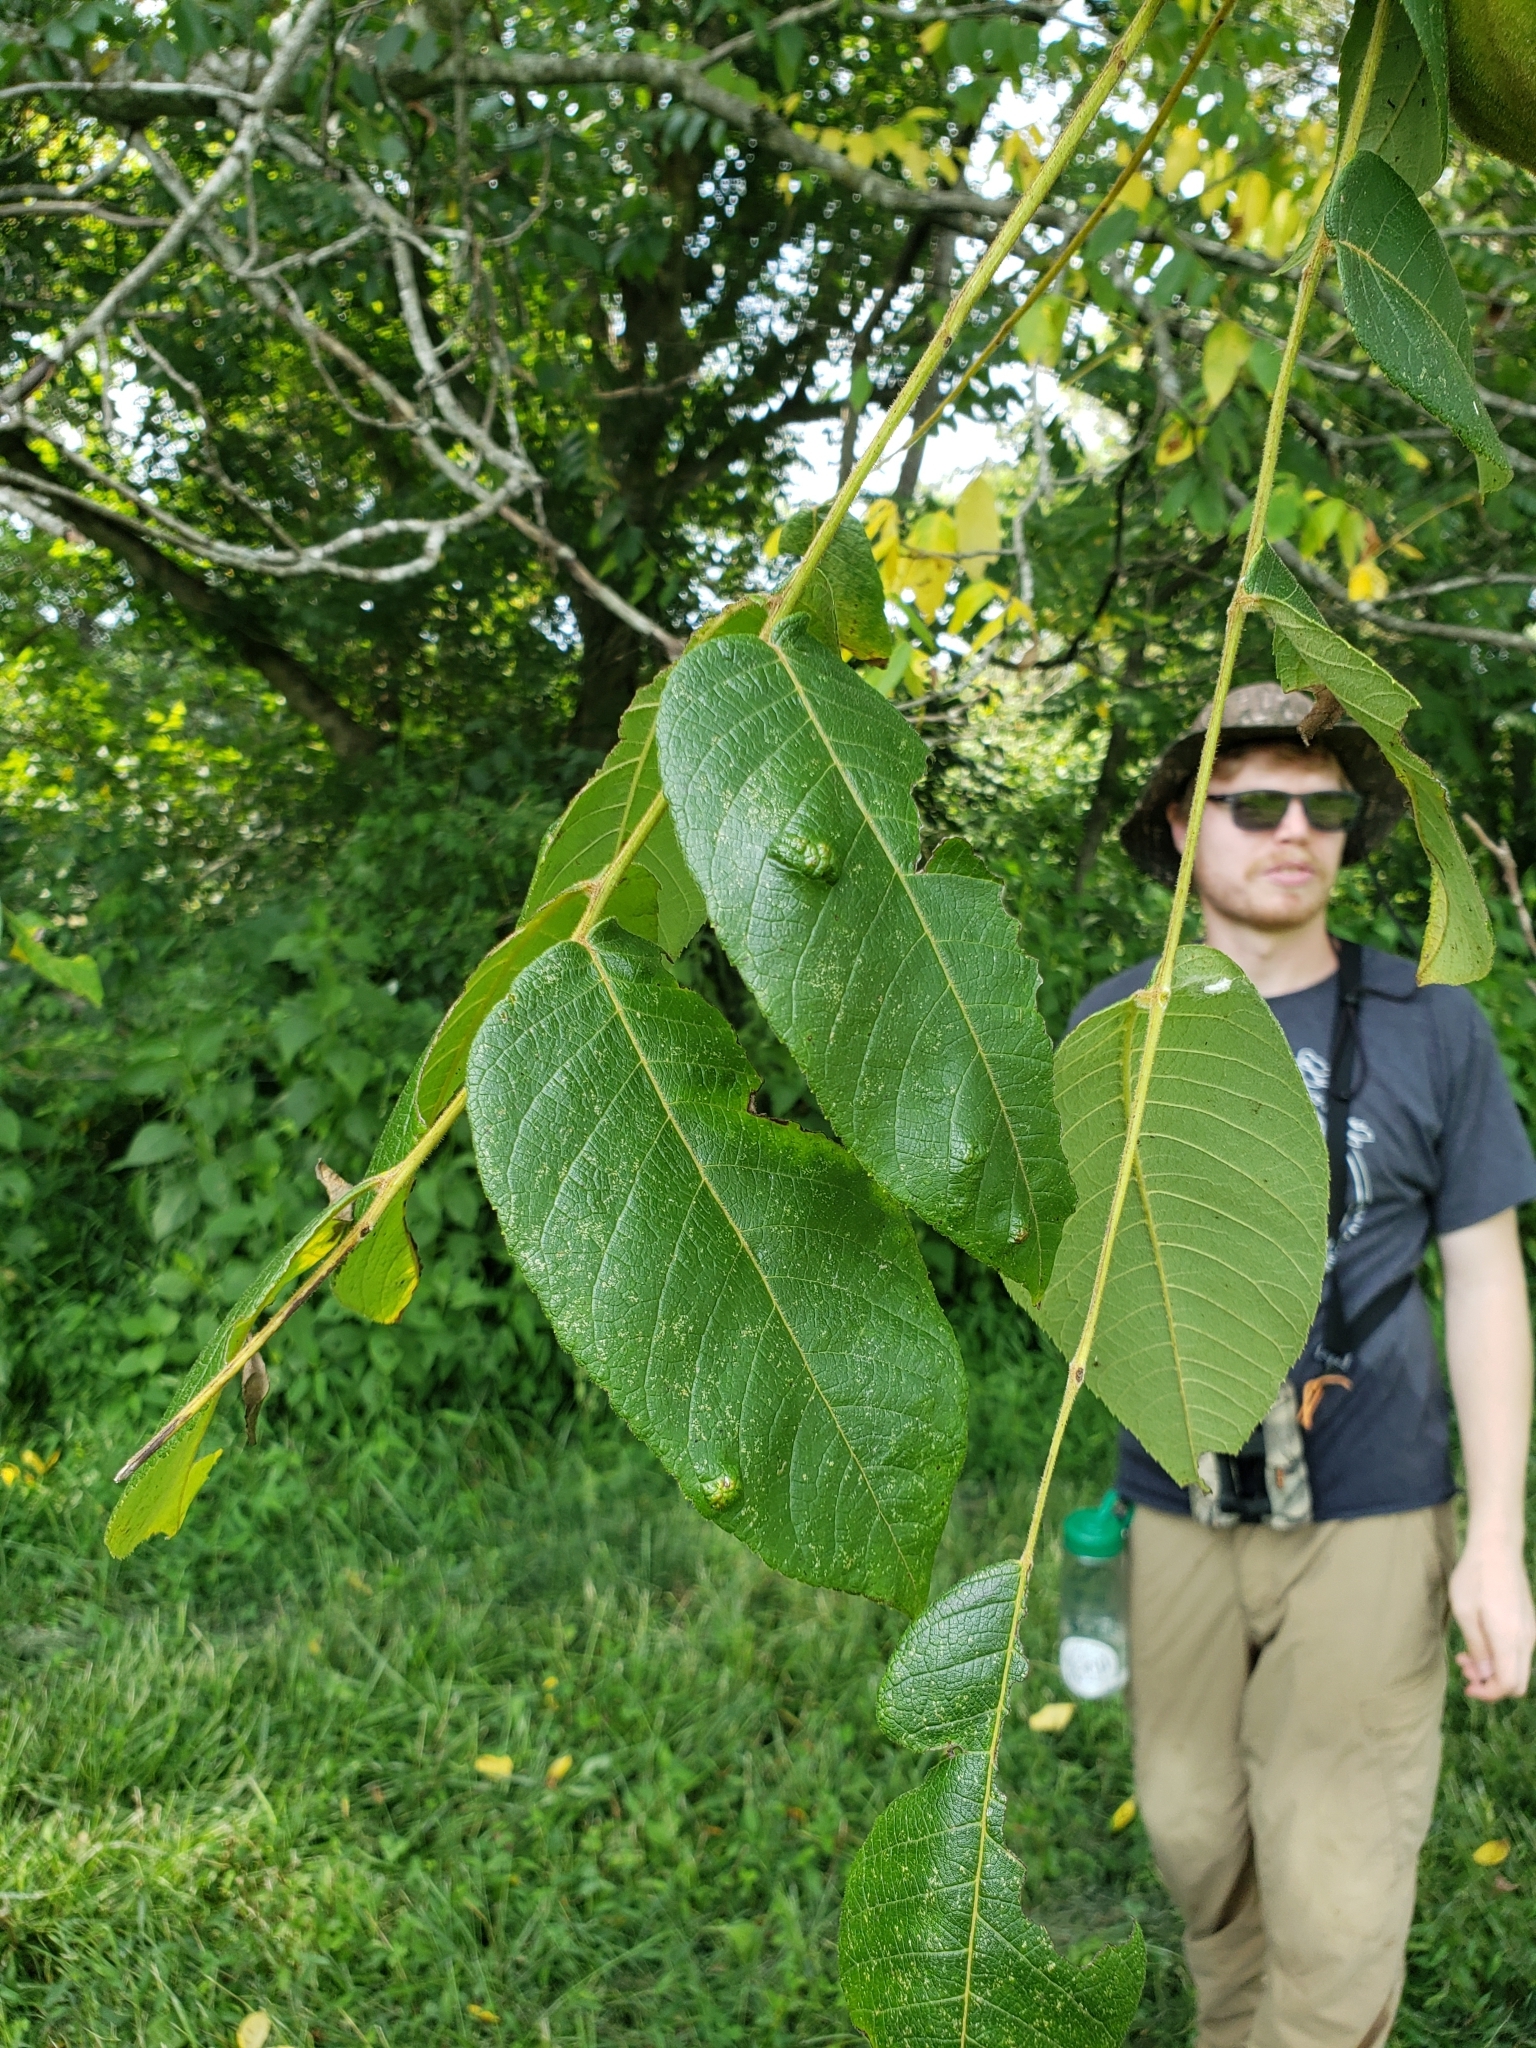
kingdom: Plantae
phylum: Tracheophyta
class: Magnoliopsida
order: Fagales
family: Juglandaceae
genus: Juglans
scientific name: Juglans cinerea
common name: Butternut
